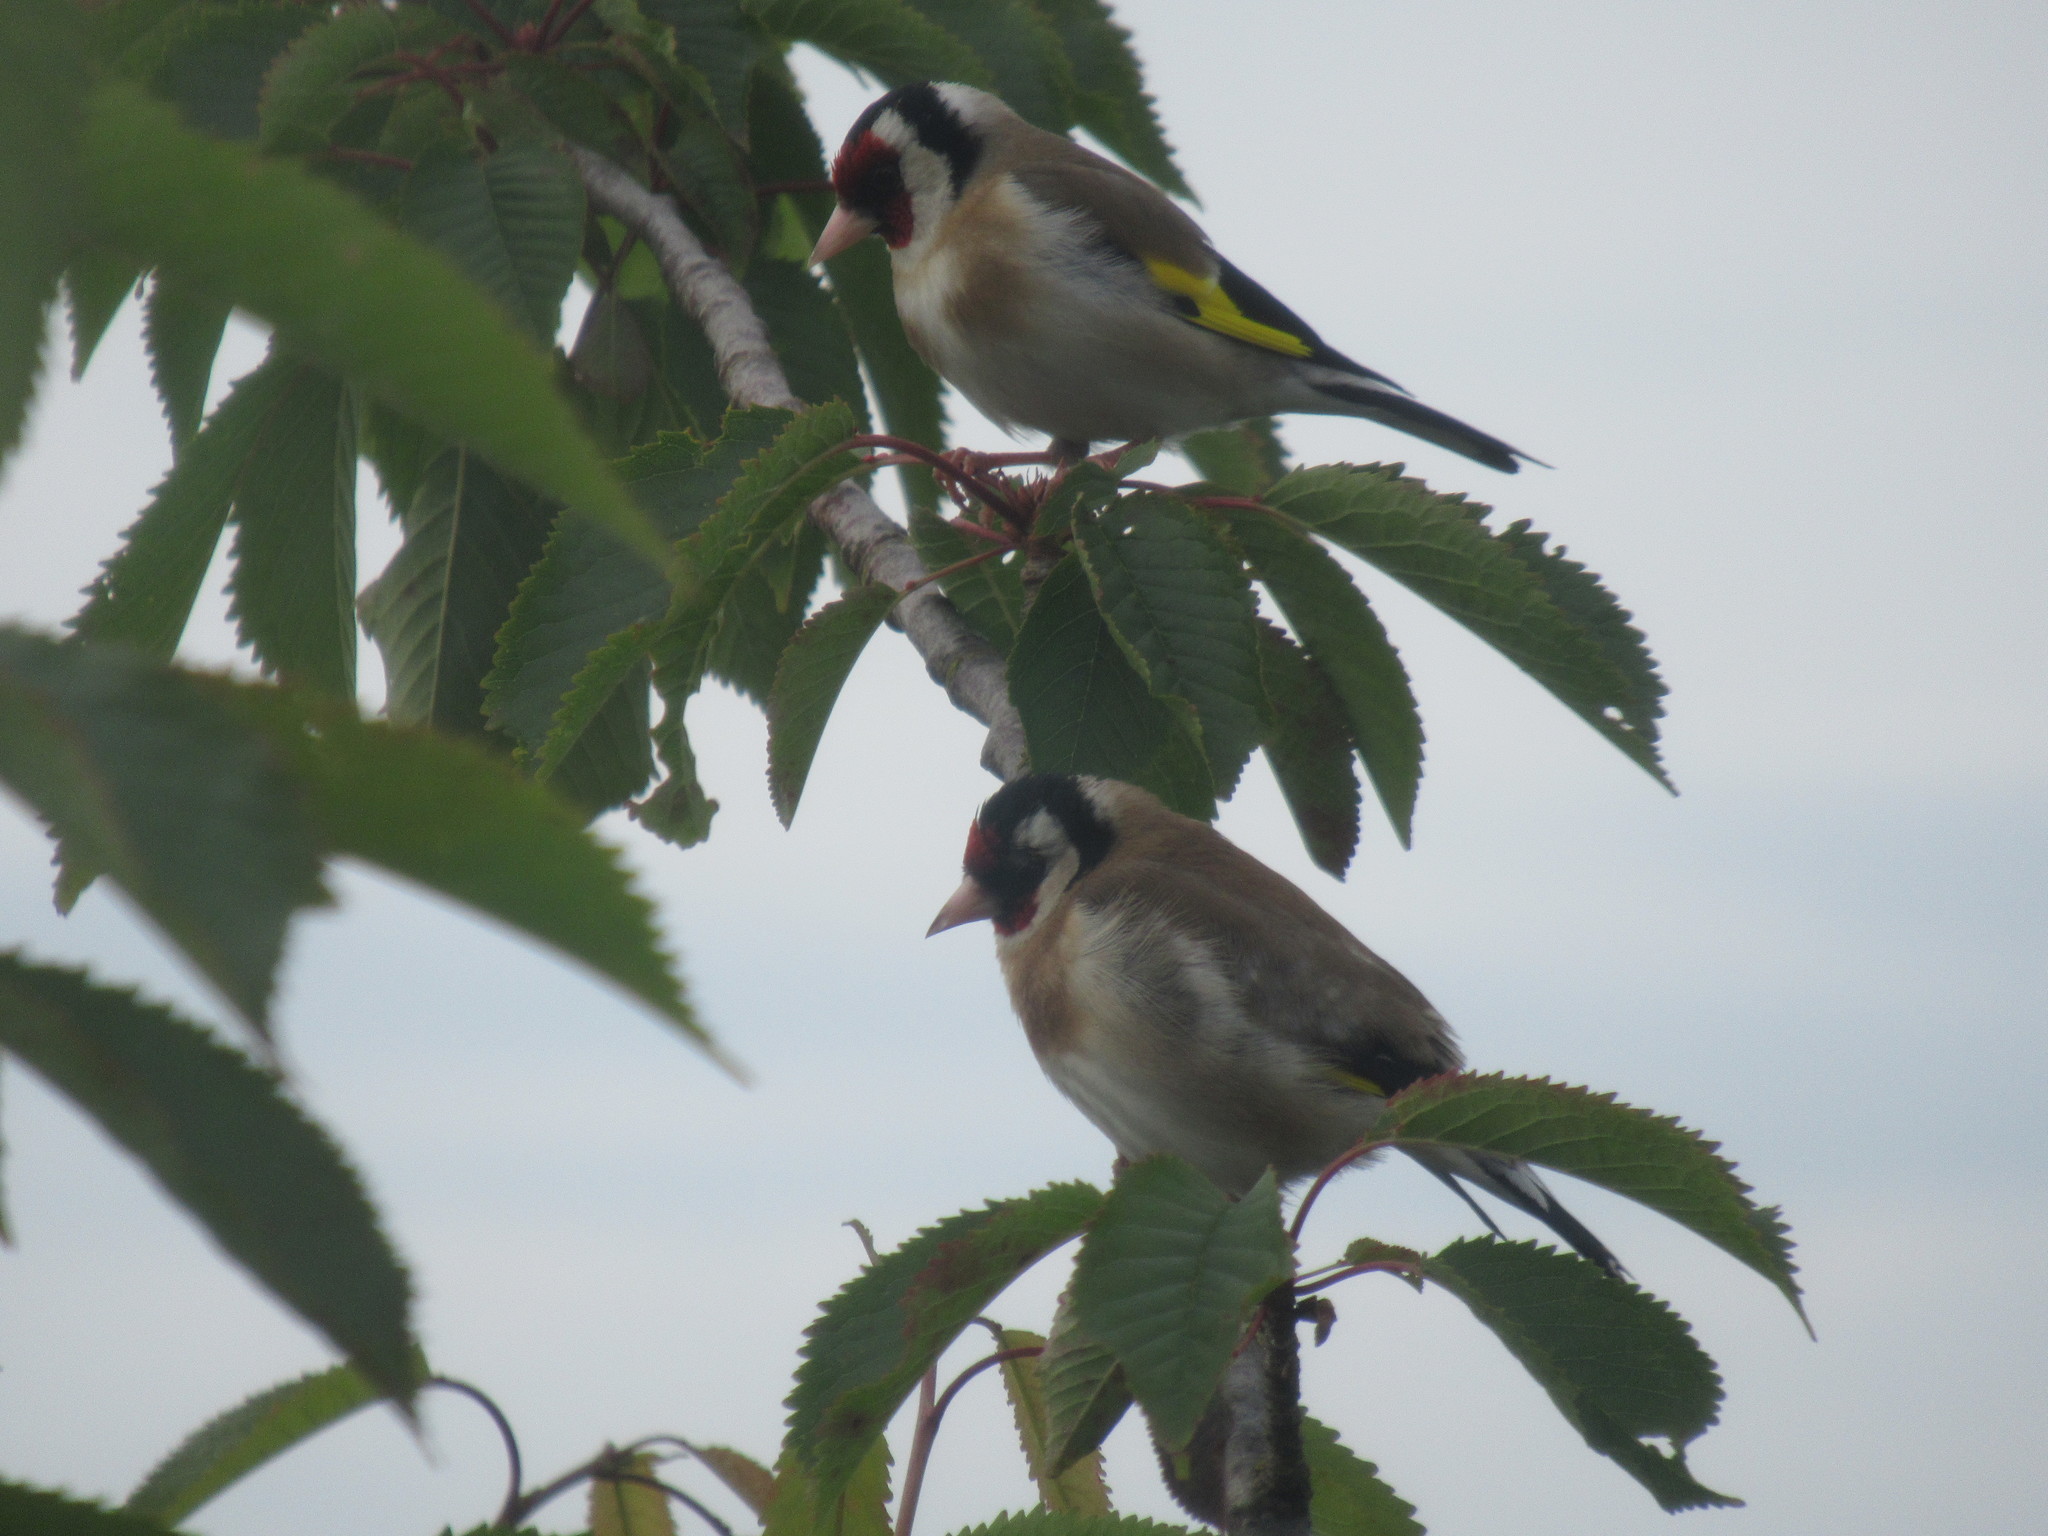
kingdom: Animalia
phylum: Chordata
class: Aves
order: Passeriformes
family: Fringillidae
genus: Carduelis
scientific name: Carduelis carduelis
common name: European goldfinch
